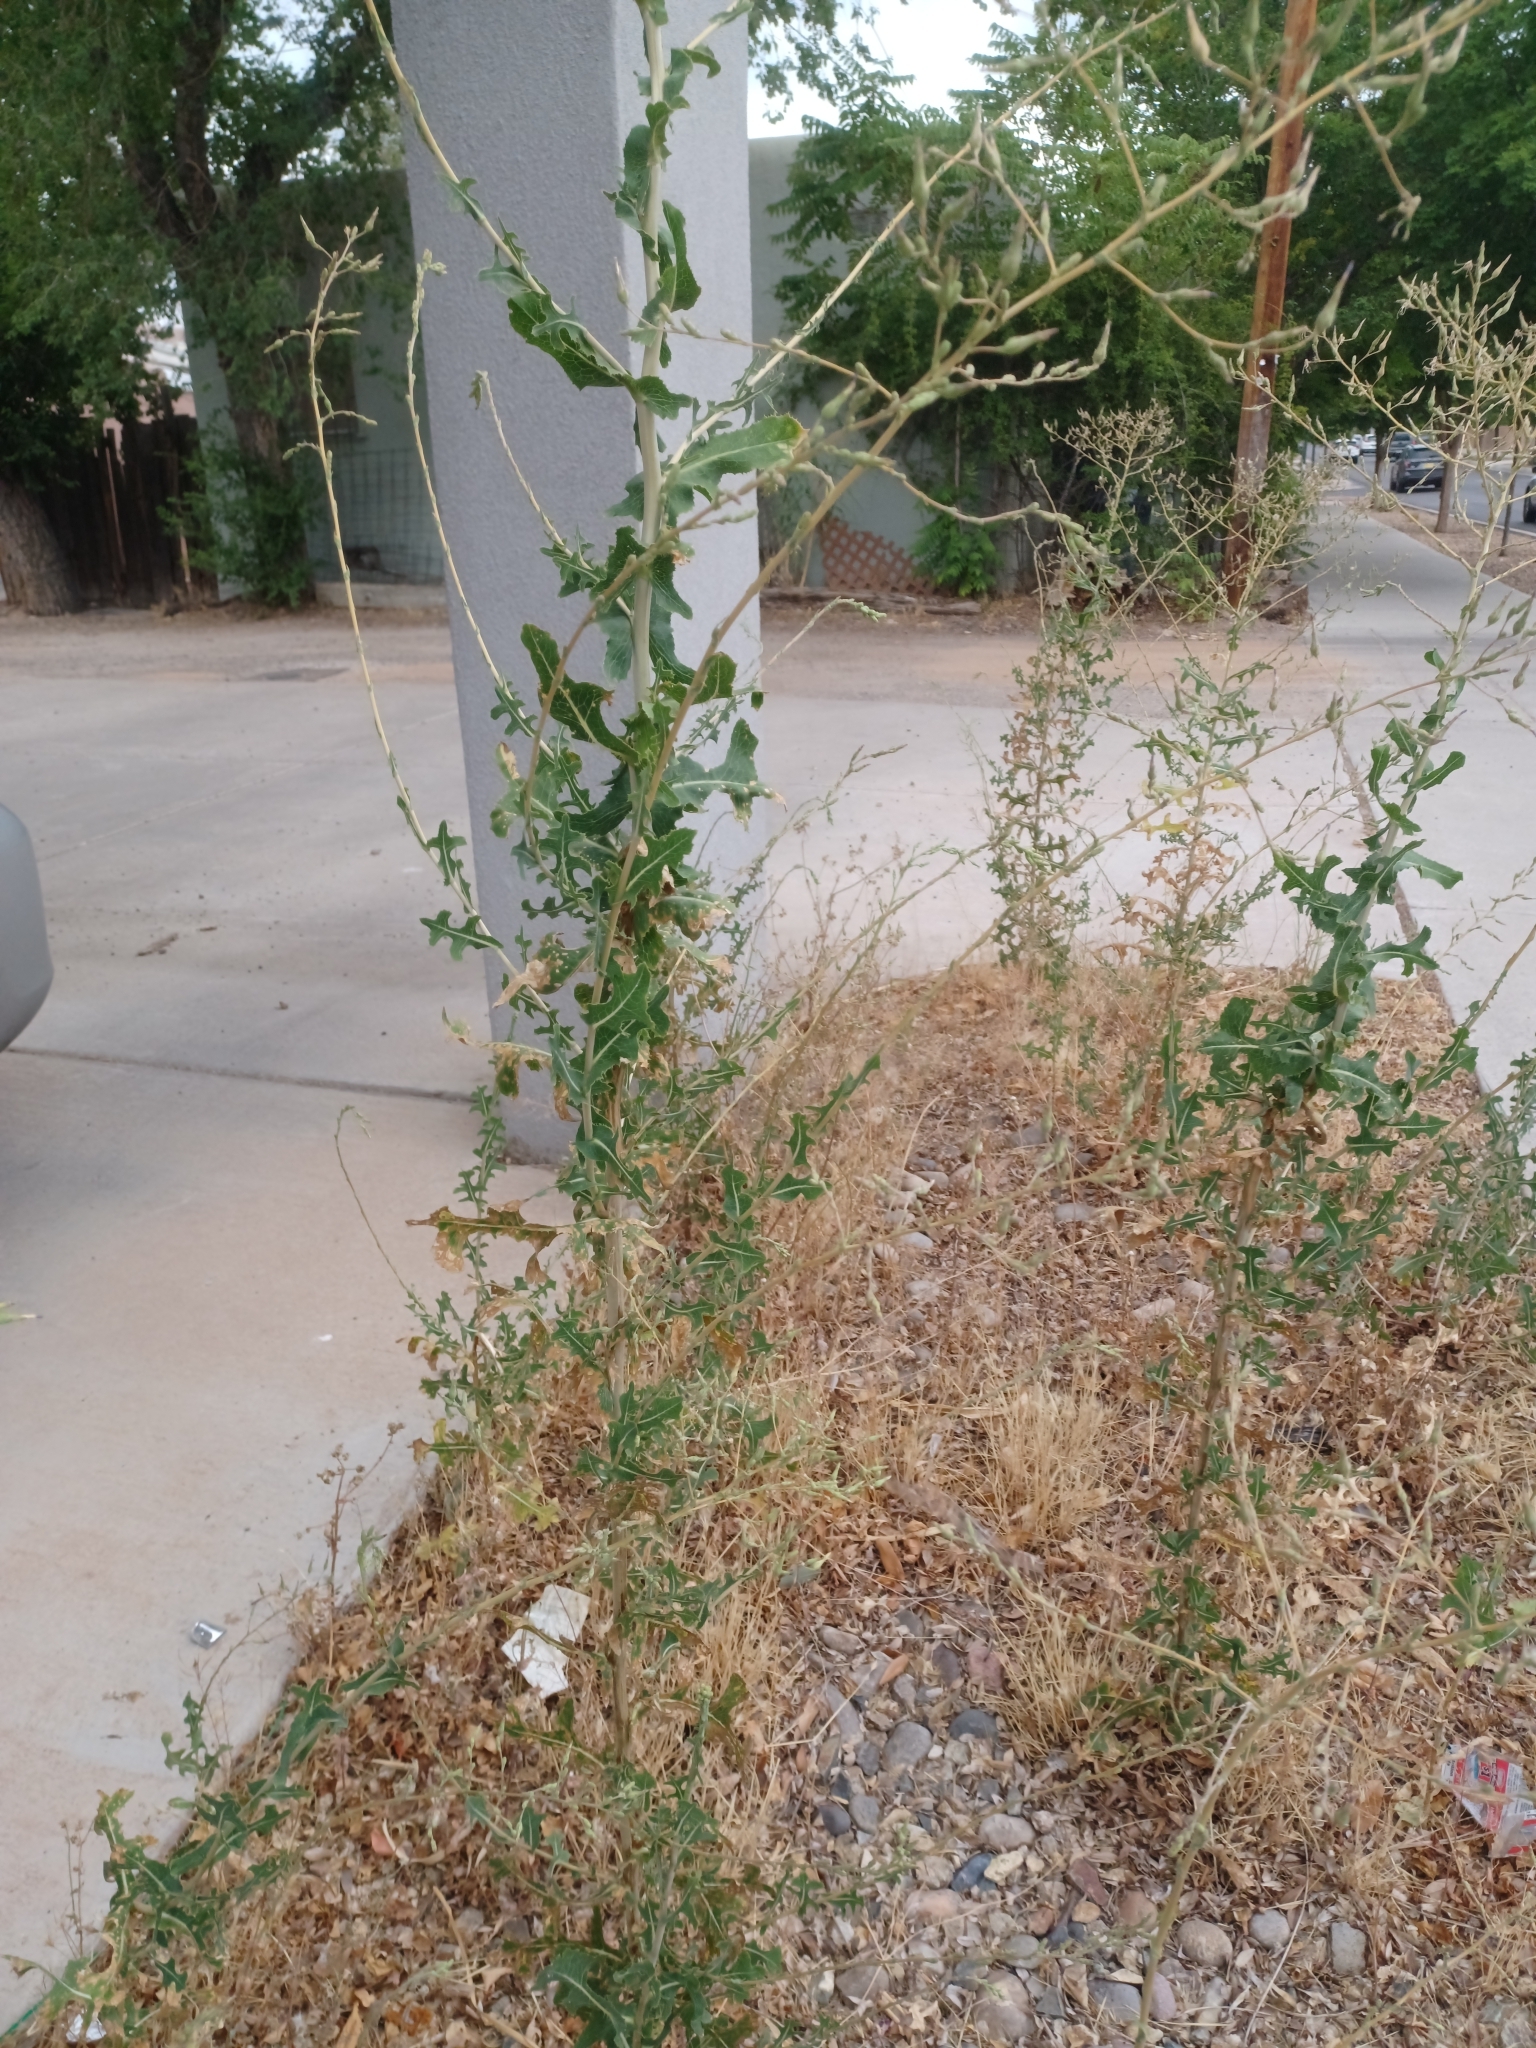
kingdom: Plantae
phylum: Tracheophyta
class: Magnoliopsida
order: Asterales
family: Asteraceae
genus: Lactuca
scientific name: Lactuca serriola
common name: Prickly lettuce
